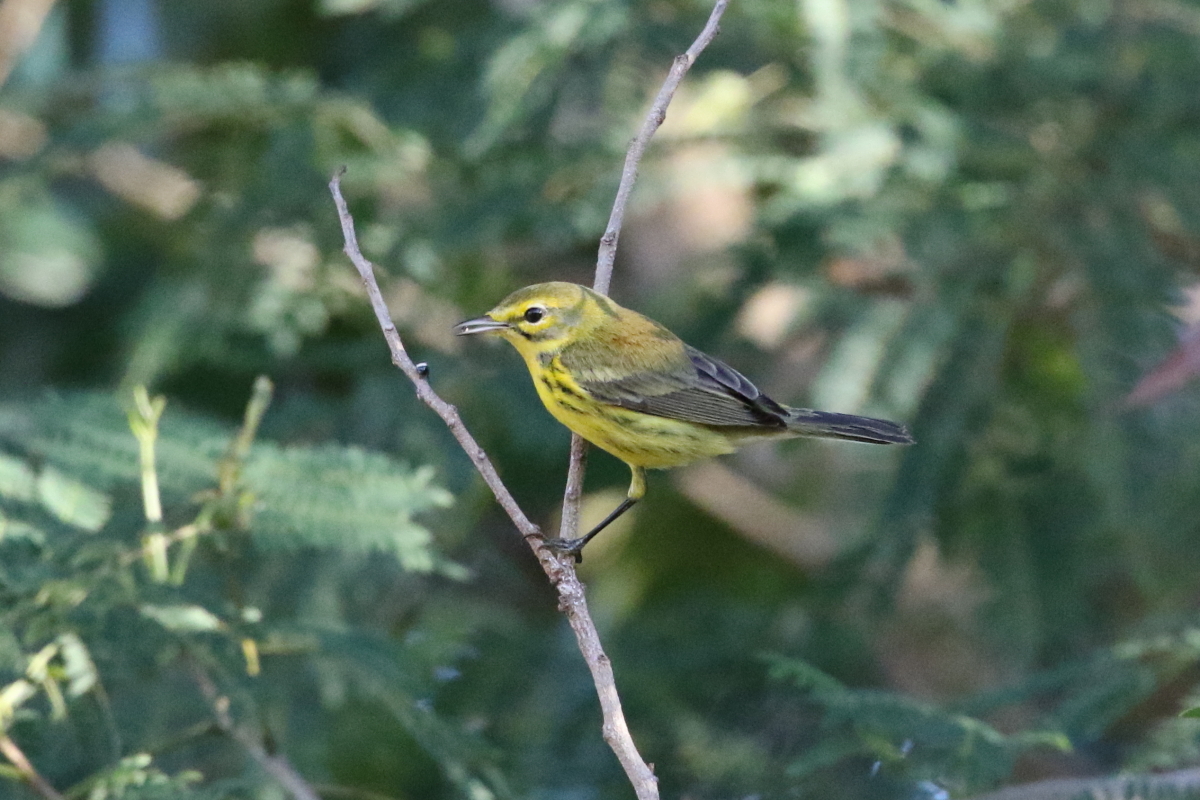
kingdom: Animalia
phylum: Chordata
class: Aves
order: Passeriformes
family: Parulidae
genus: Setophaga
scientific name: Setophaga discolor
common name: Prairie warbler
